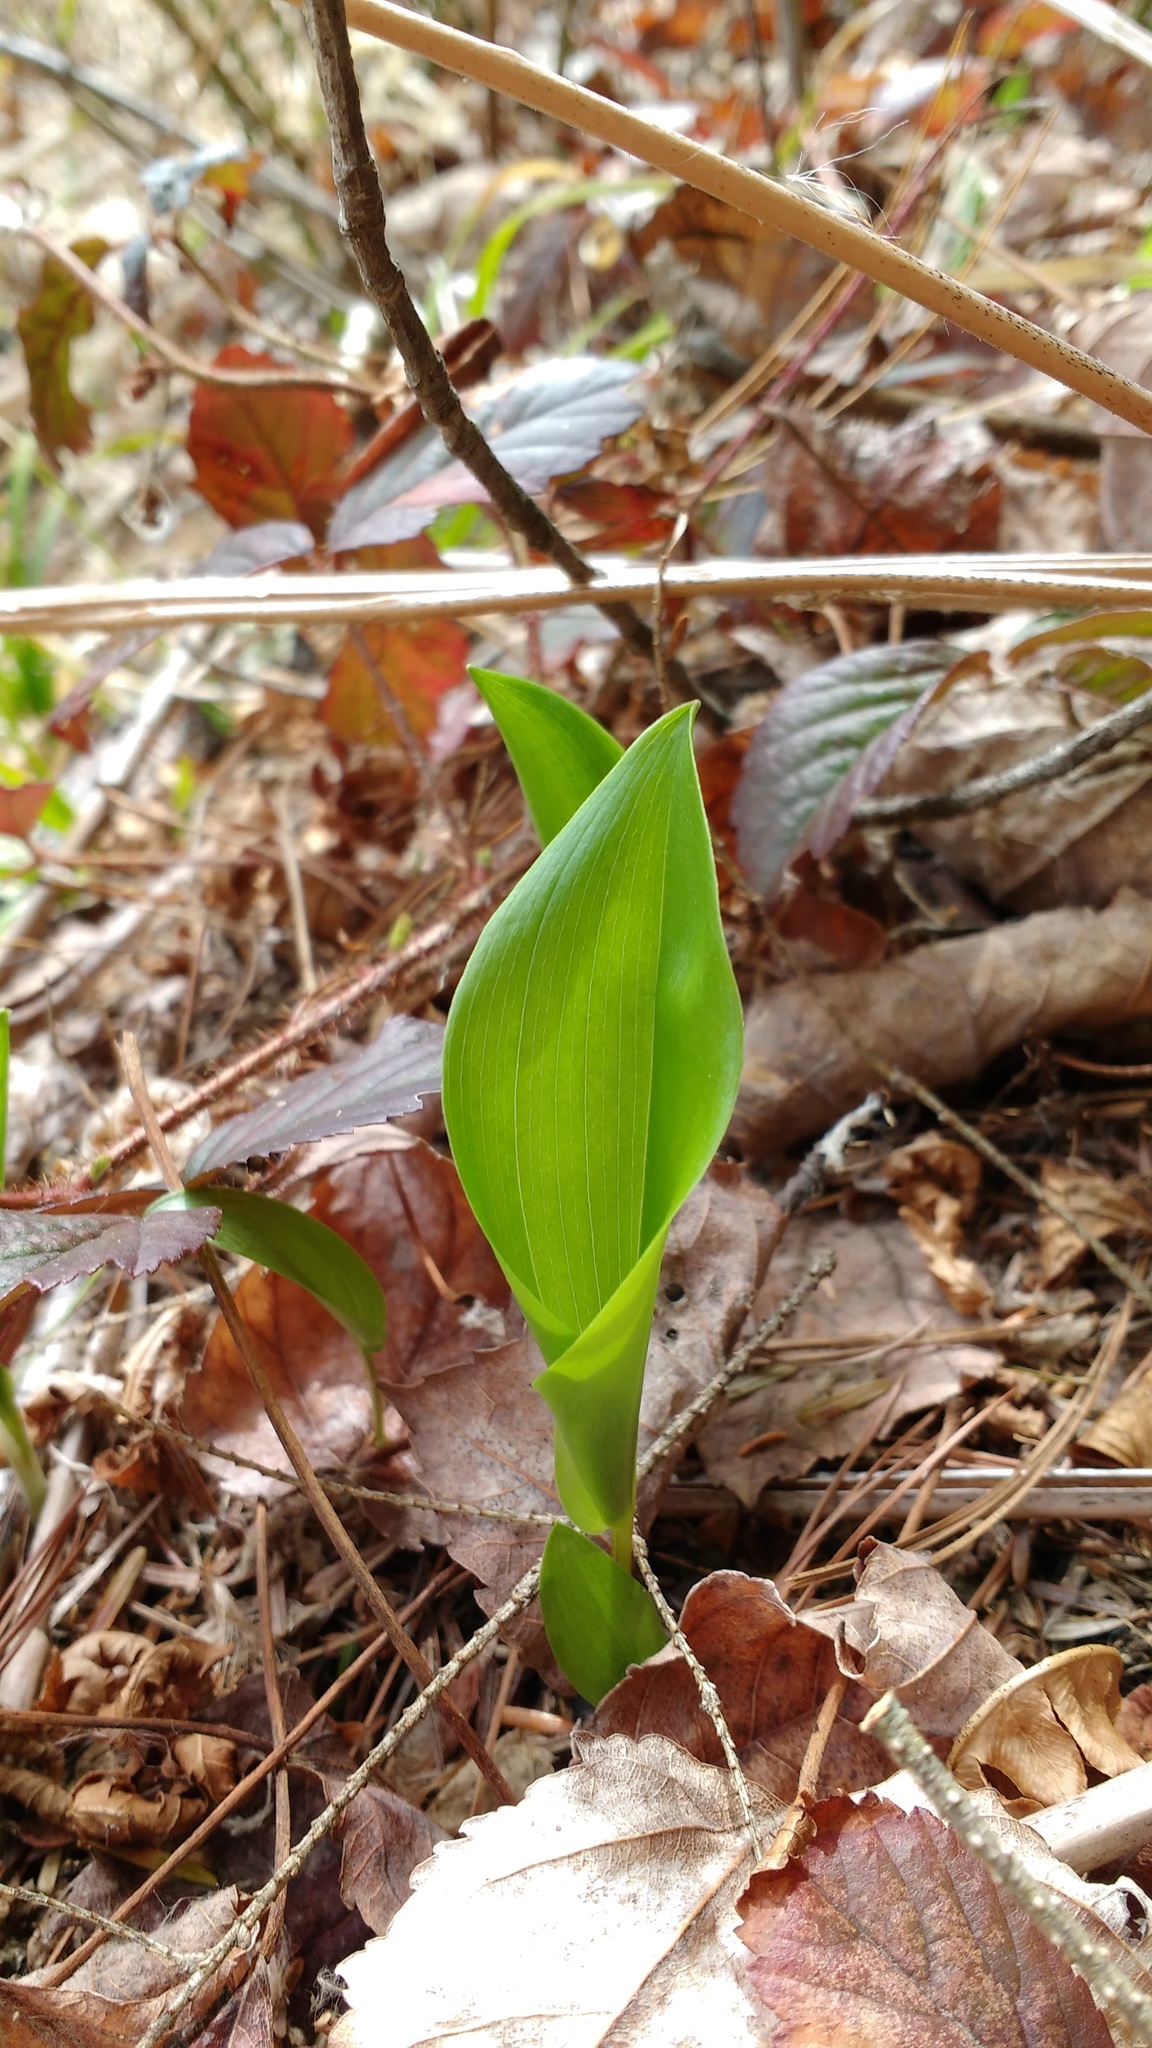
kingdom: Plantae
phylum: Tracheophyta
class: Liliopsida
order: Asparagales
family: Asparagaceae
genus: Maianthemum
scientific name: Maianthemum canadense
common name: False lily-of-the-valley
